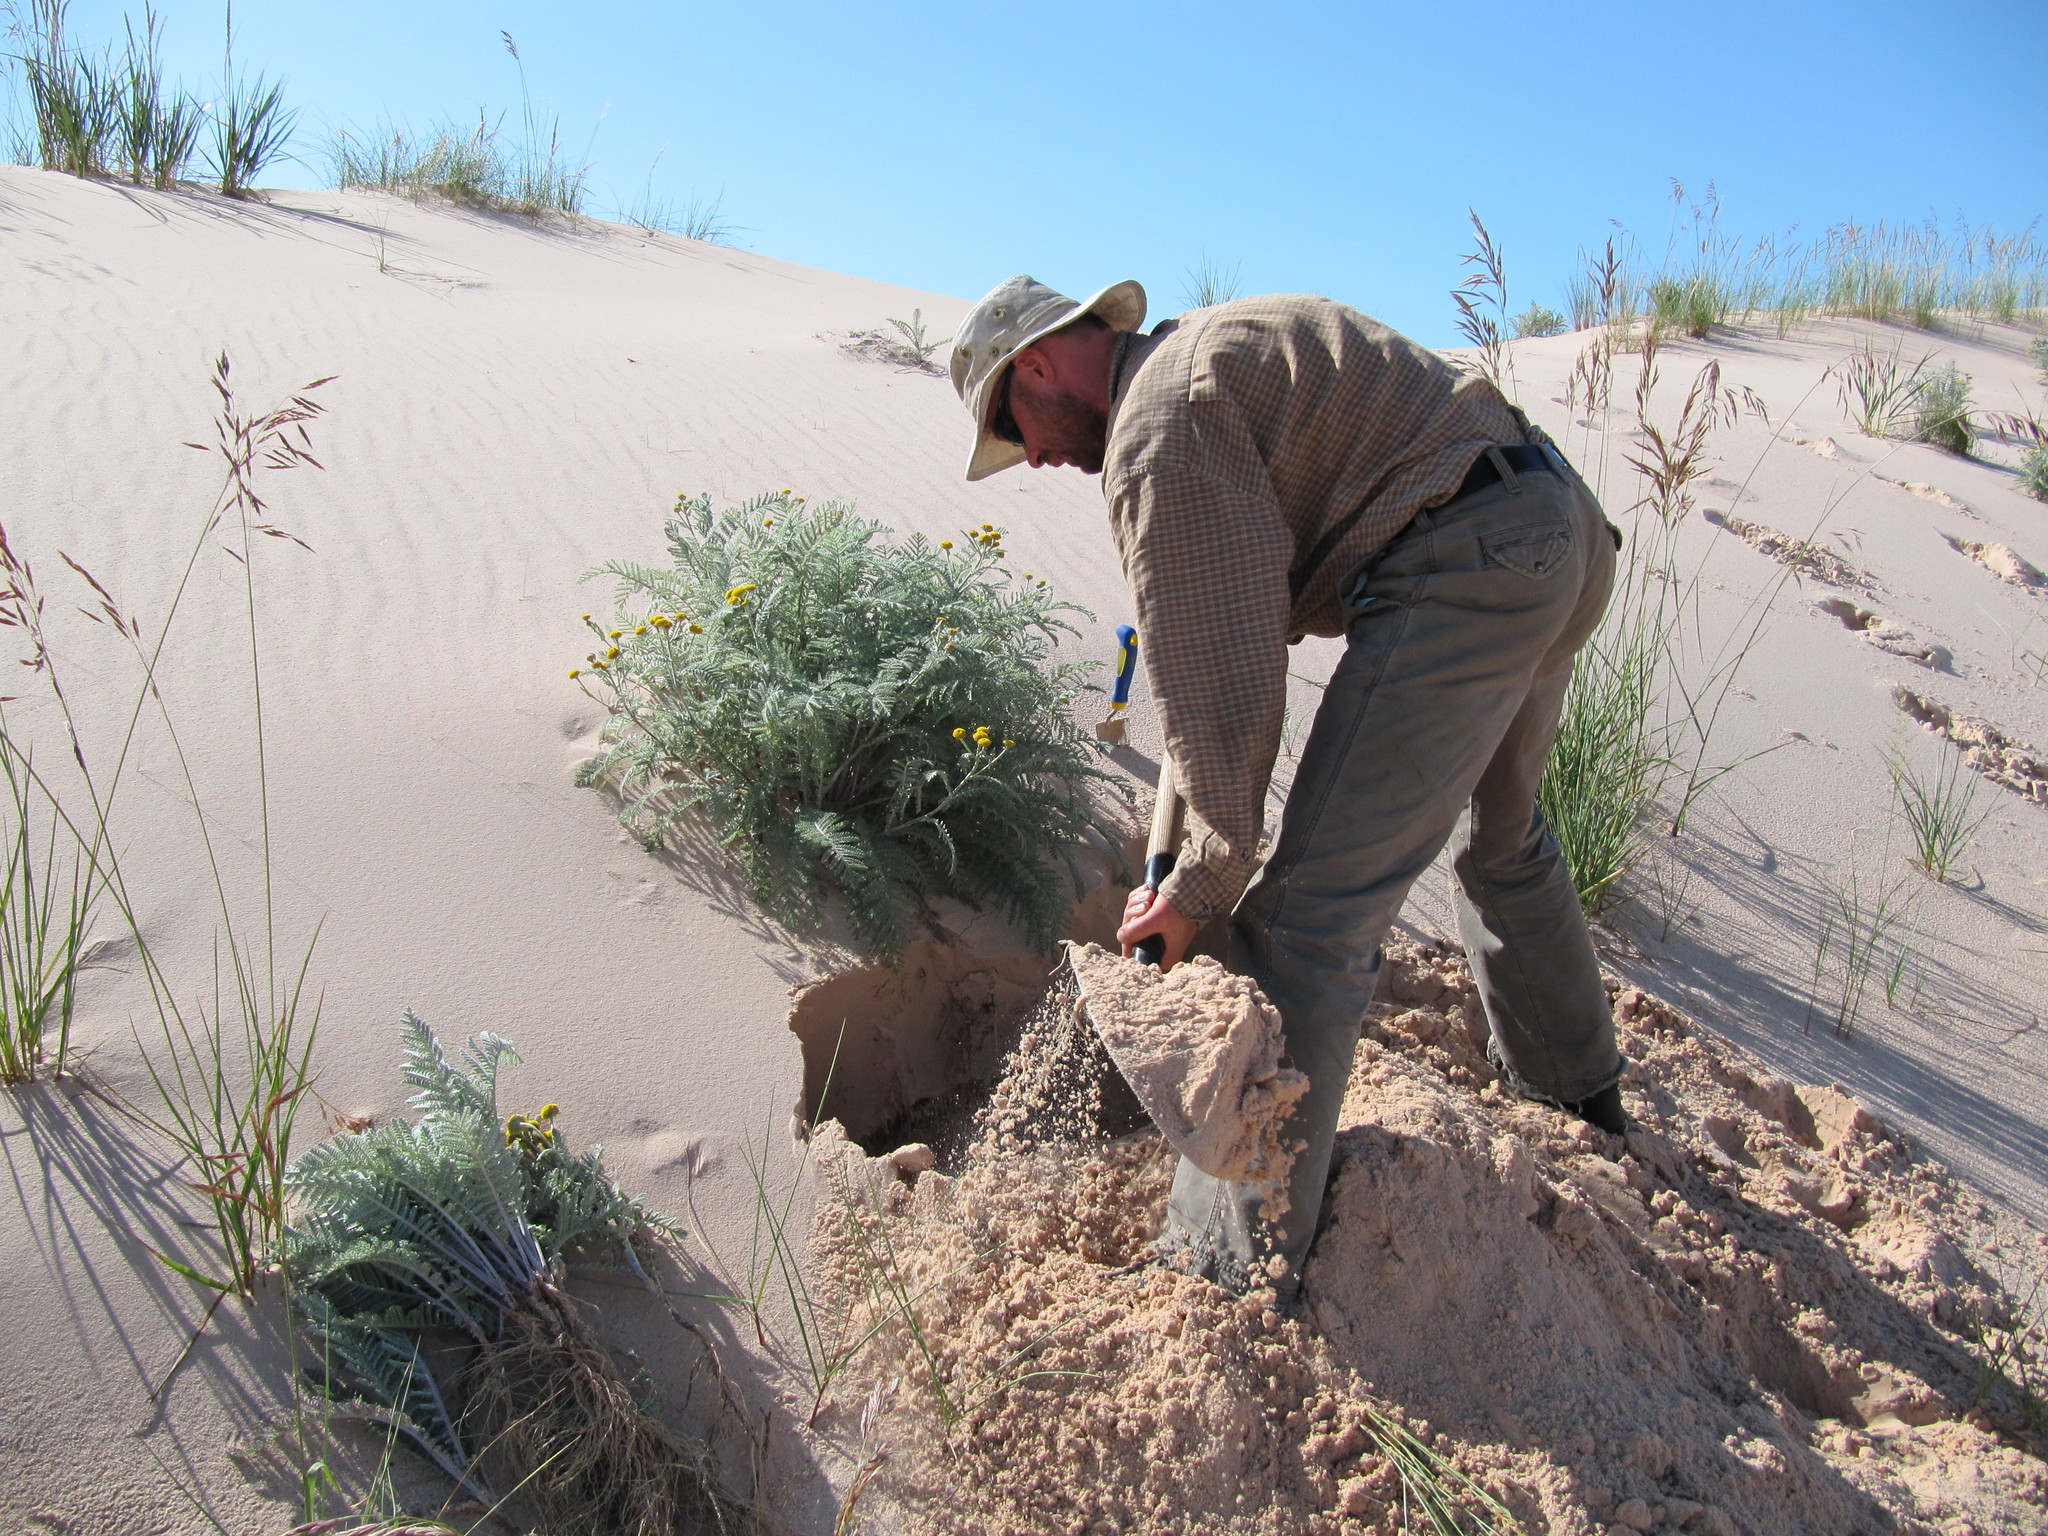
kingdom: Plantae
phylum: Tracheophyta
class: Magnoliopsida
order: Asterales
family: Asteraceae
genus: Tanacetum
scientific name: Tanacetum bipinnatum
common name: Dwarf tansy
